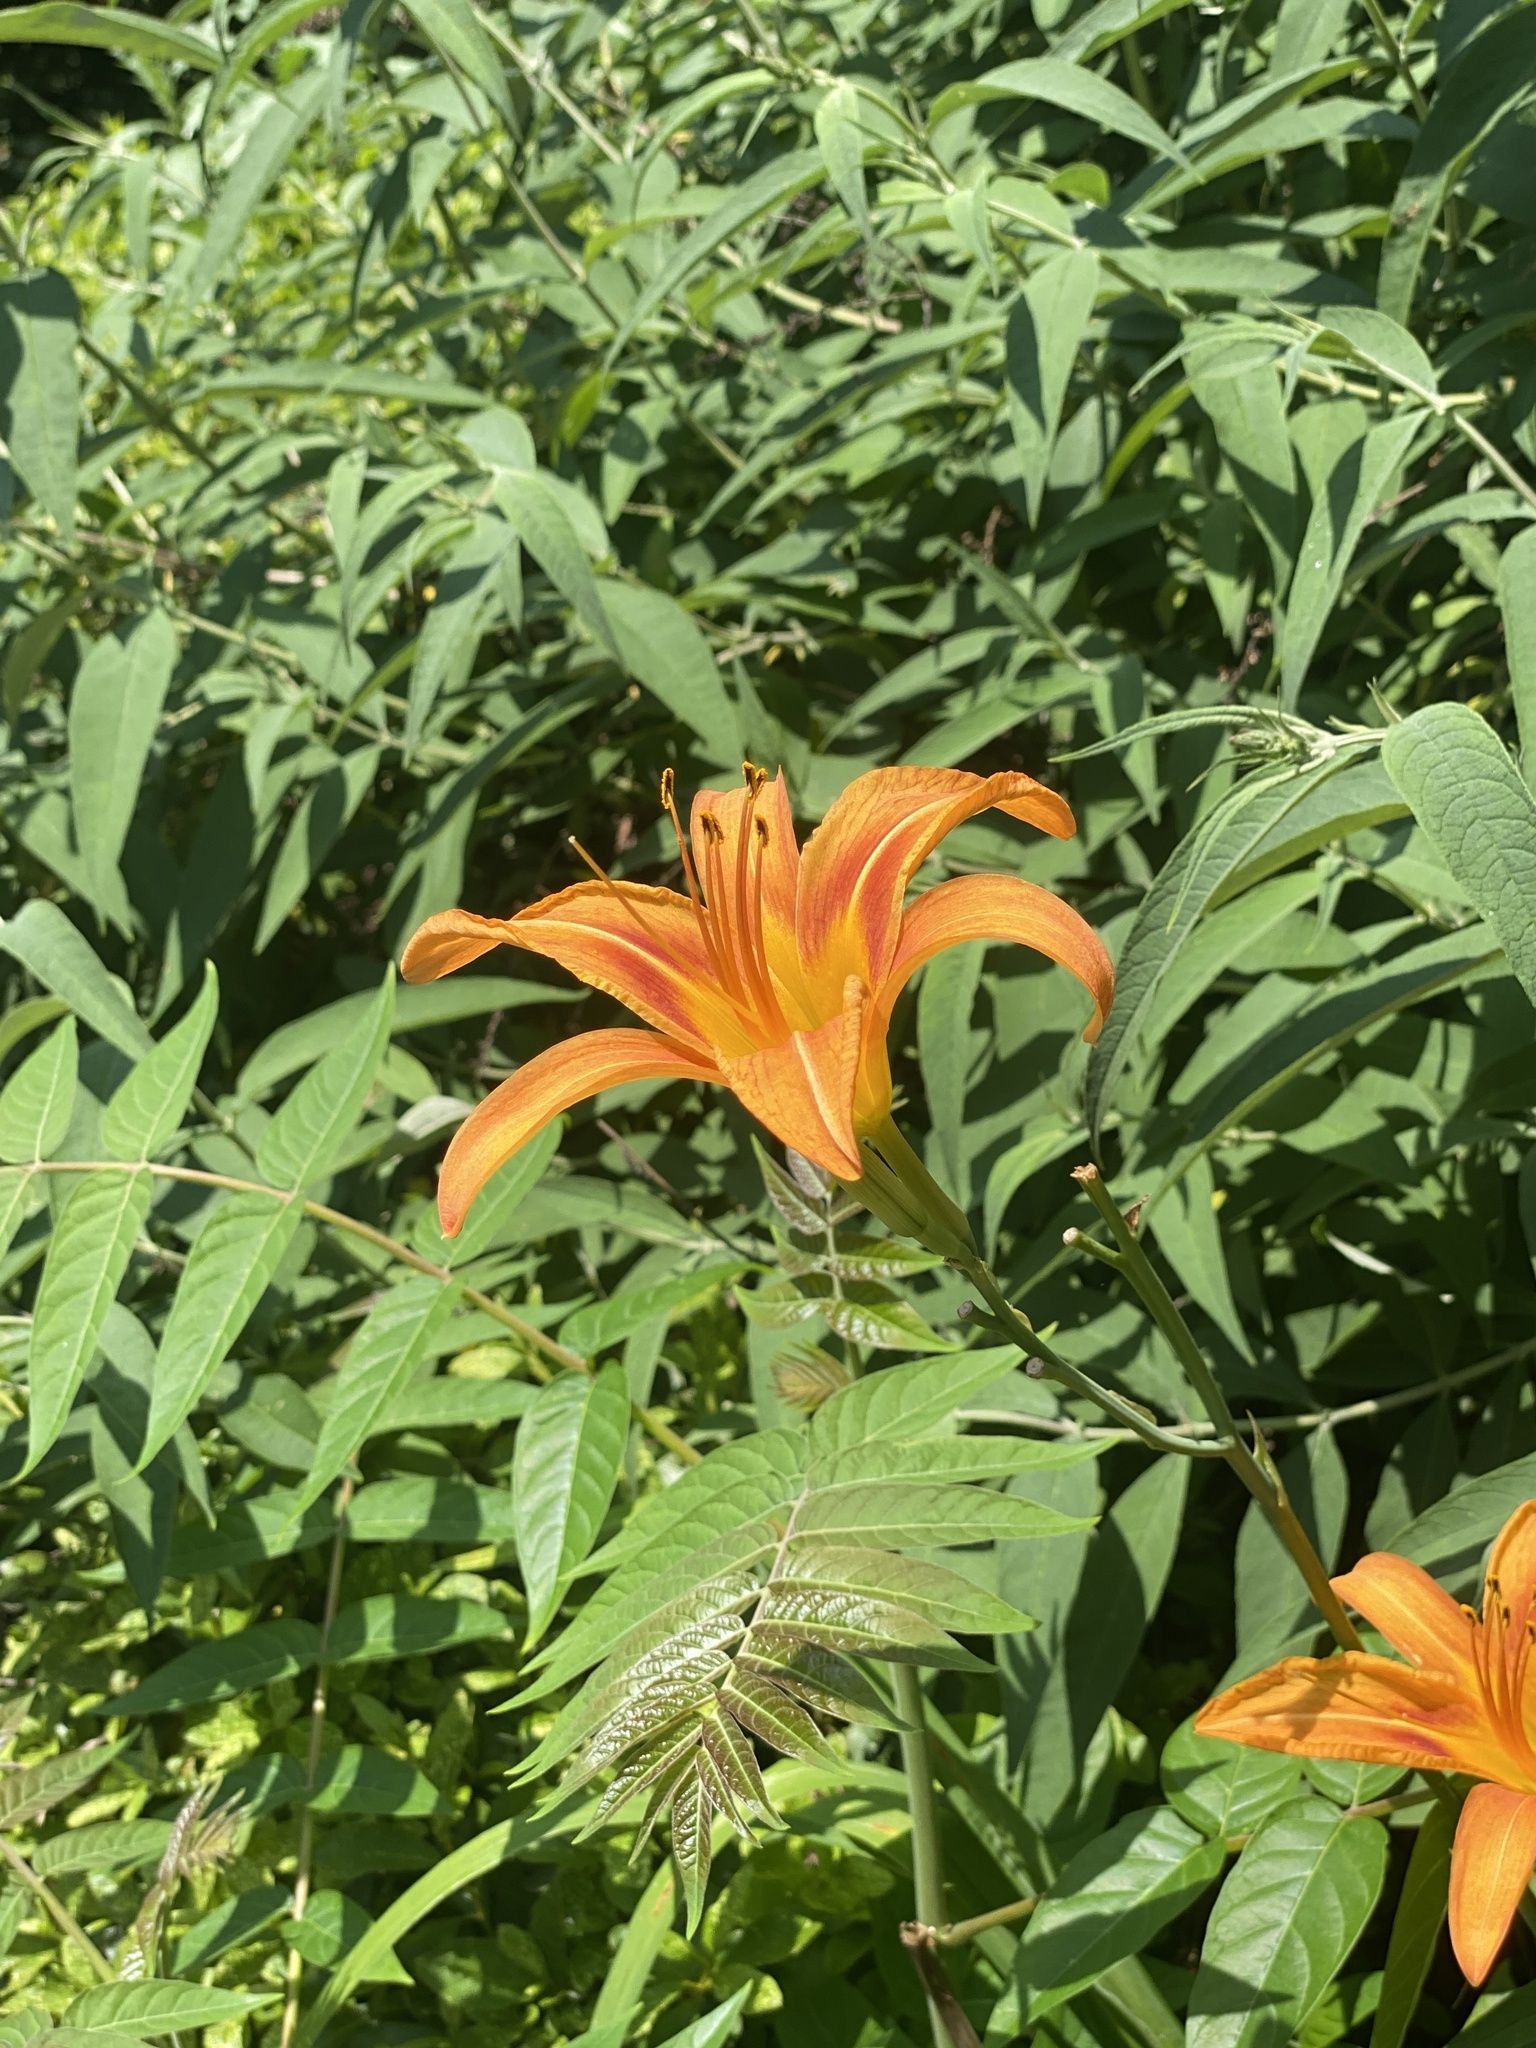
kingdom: Plantae
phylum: Tracheophyta
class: Liliopsida
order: Asparagales
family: Asphodelaceae
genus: Hemerocallis
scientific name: Hemerocallis fulva
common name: Orange day-lily
